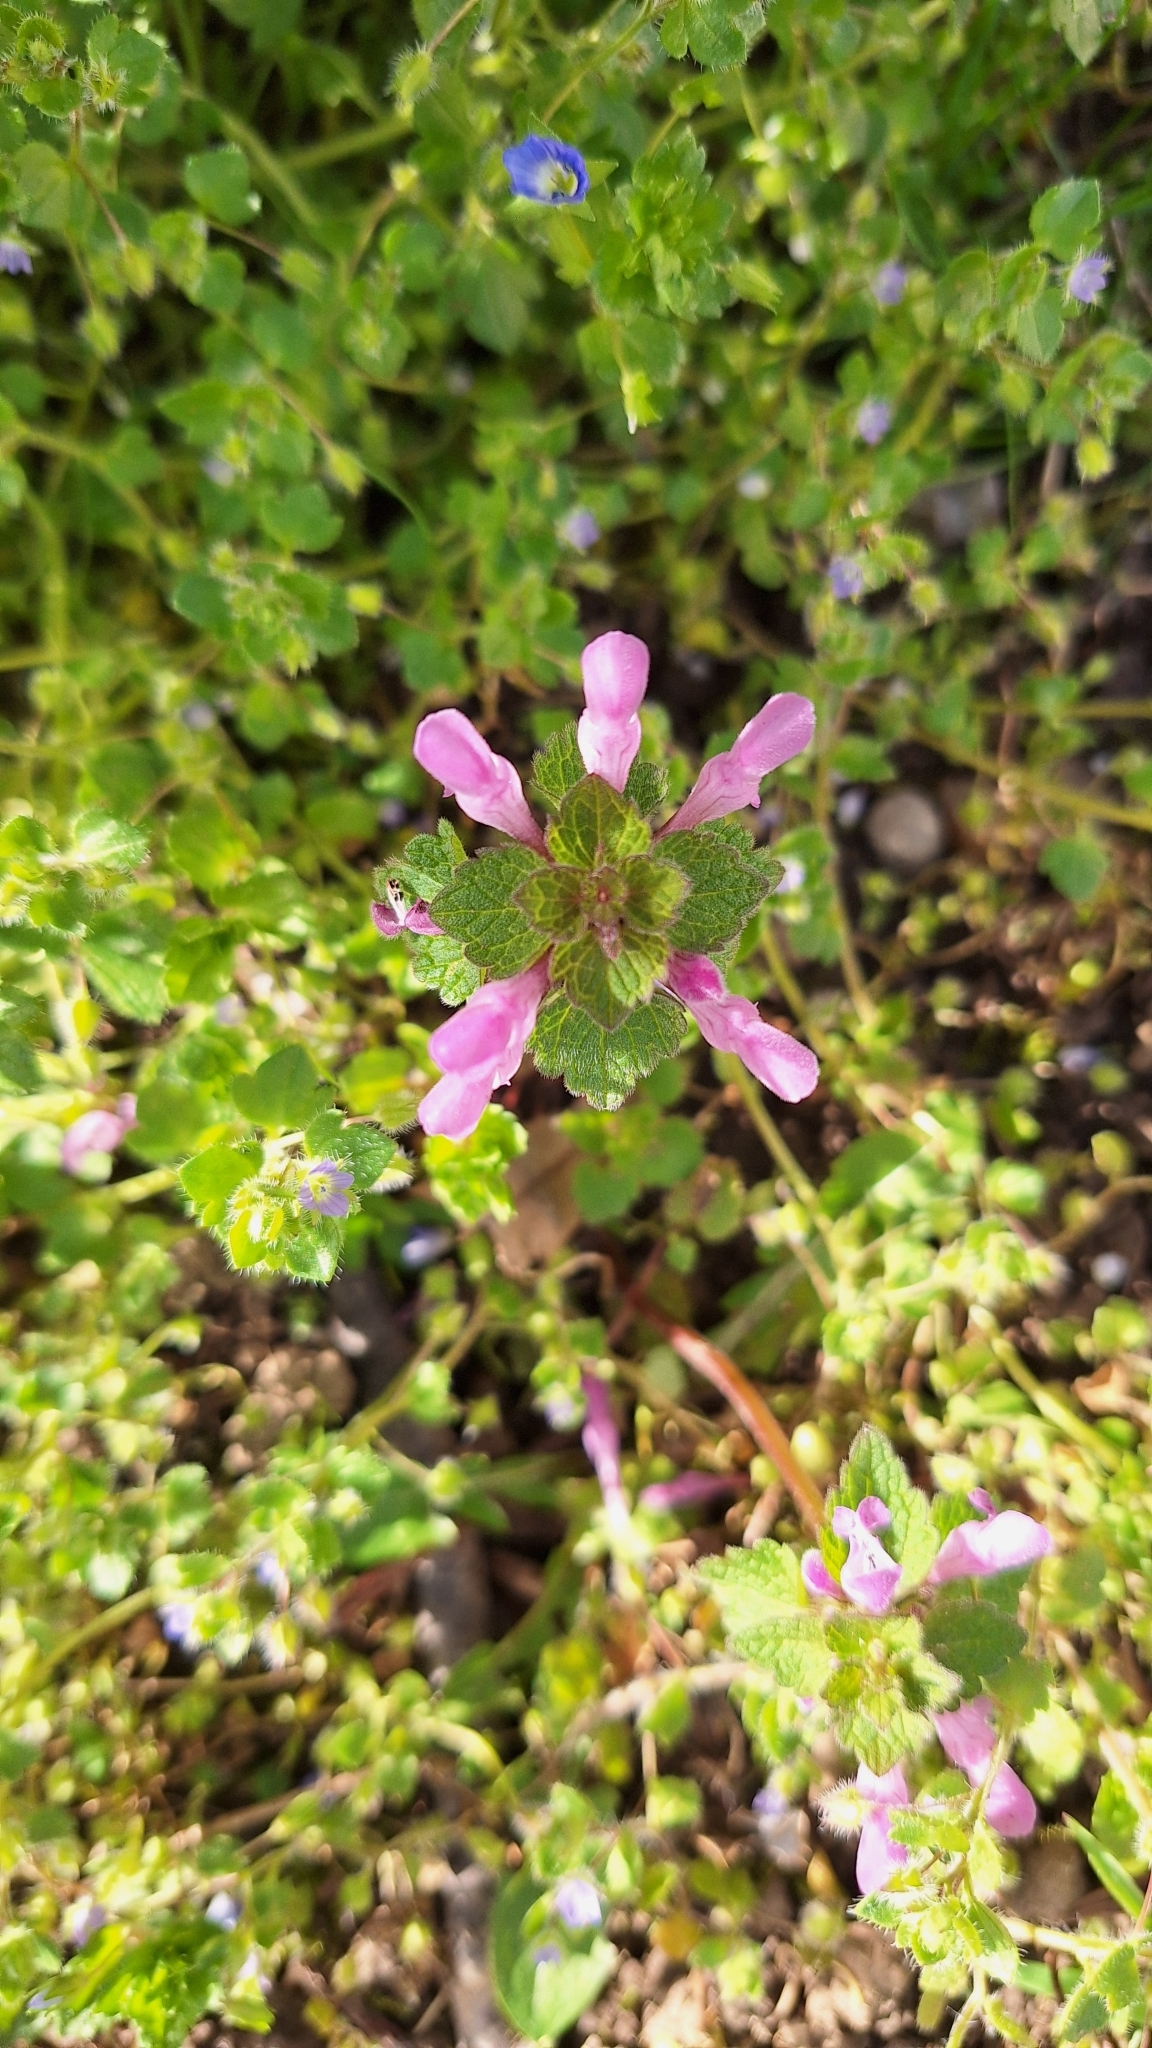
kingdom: Plantae
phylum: Tracheophyta
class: Magnoliopsida
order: Lamiales
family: Lamiaceae
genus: Lamium
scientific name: Lamium purpureum
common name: Red dead-nettle
